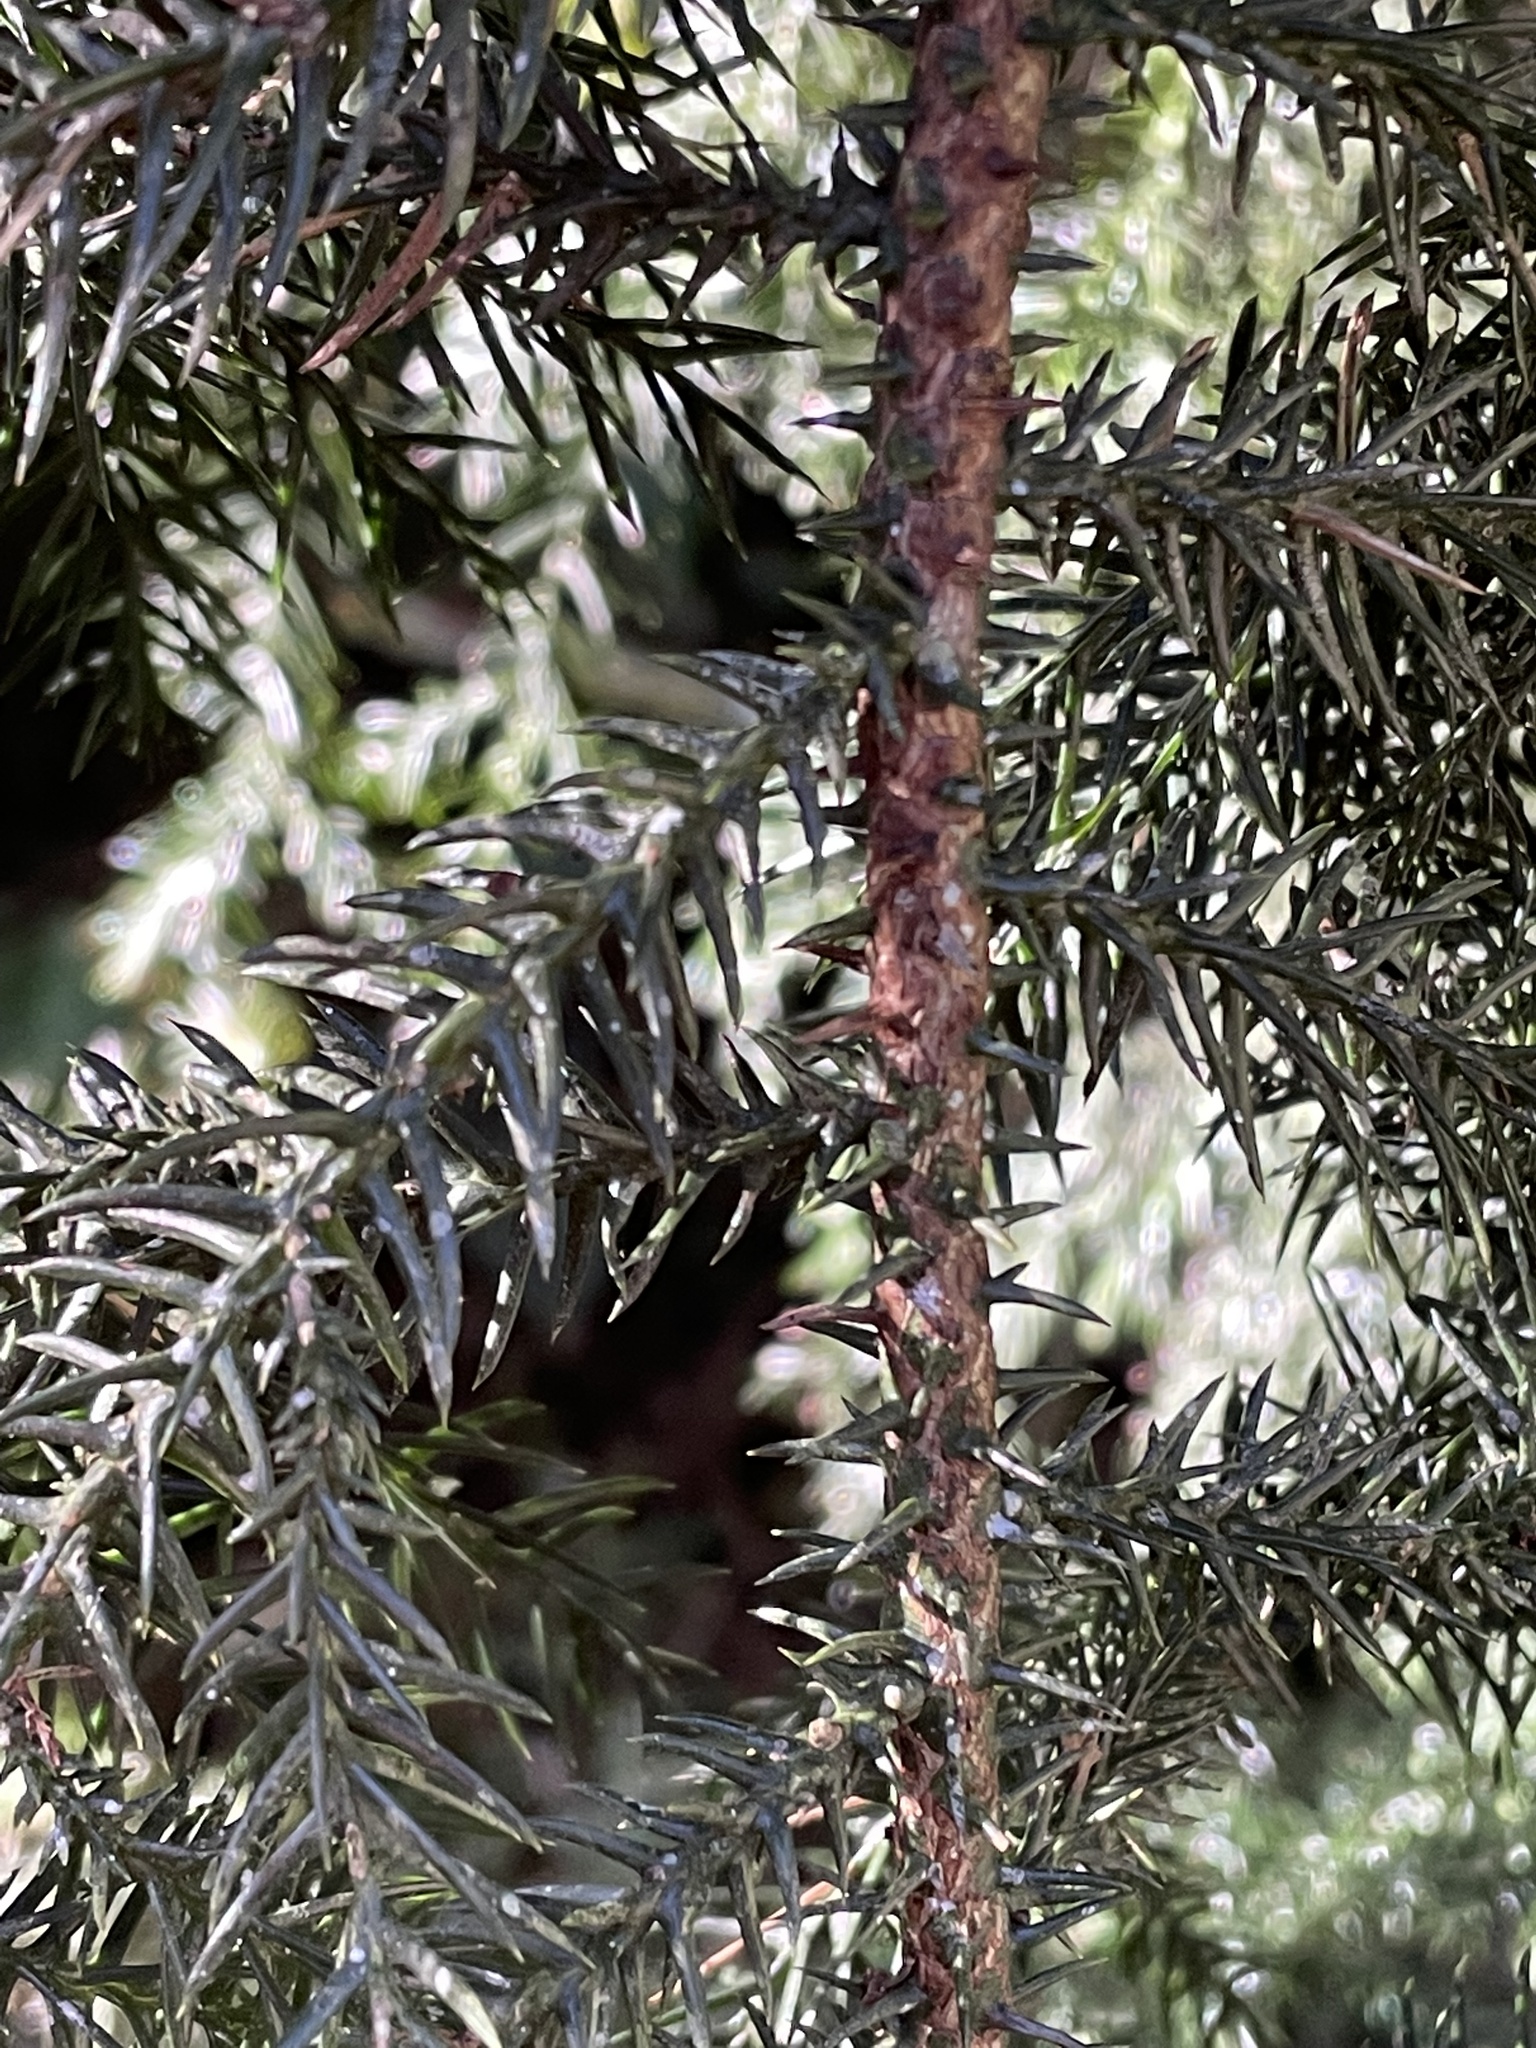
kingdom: Plantae
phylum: Tracheophyta
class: Pinopsida
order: Pinales
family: Araucariaceae
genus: Araucaria
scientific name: Araucaria cunninghamii
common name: Colonial pine
